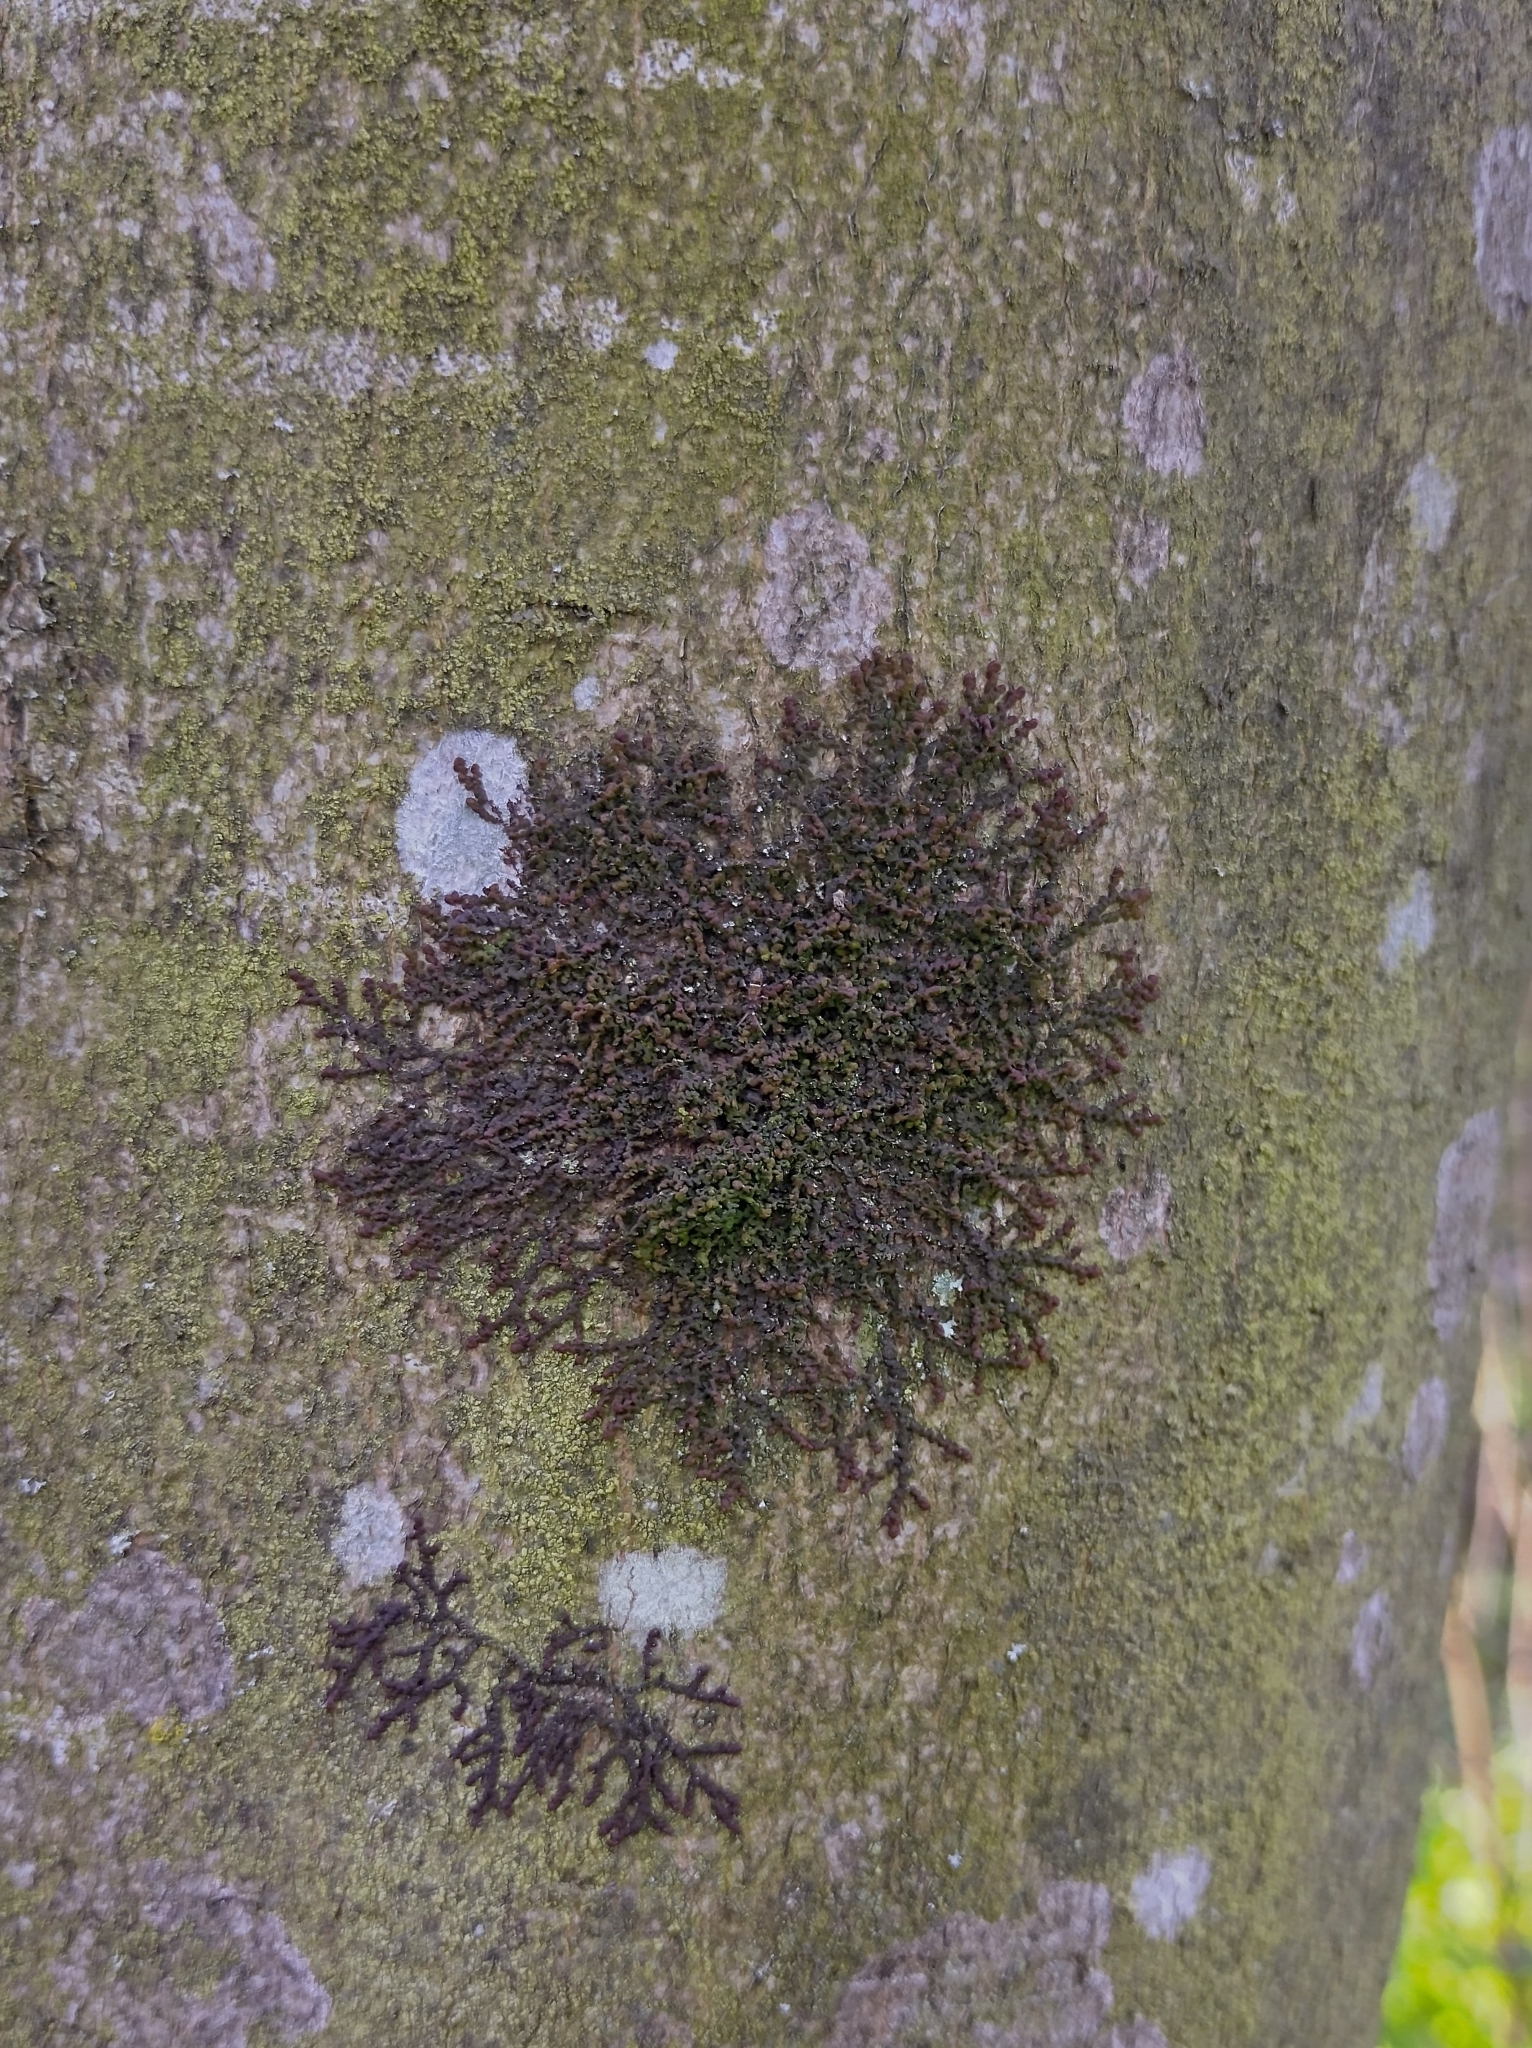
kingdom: Plantae
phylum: Marchantiophyta
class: Jungermanniopsida
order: Porellales
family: Frullaniaceae
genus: Frullania
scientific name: Frullania dilatata
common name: Dilated scalewort
